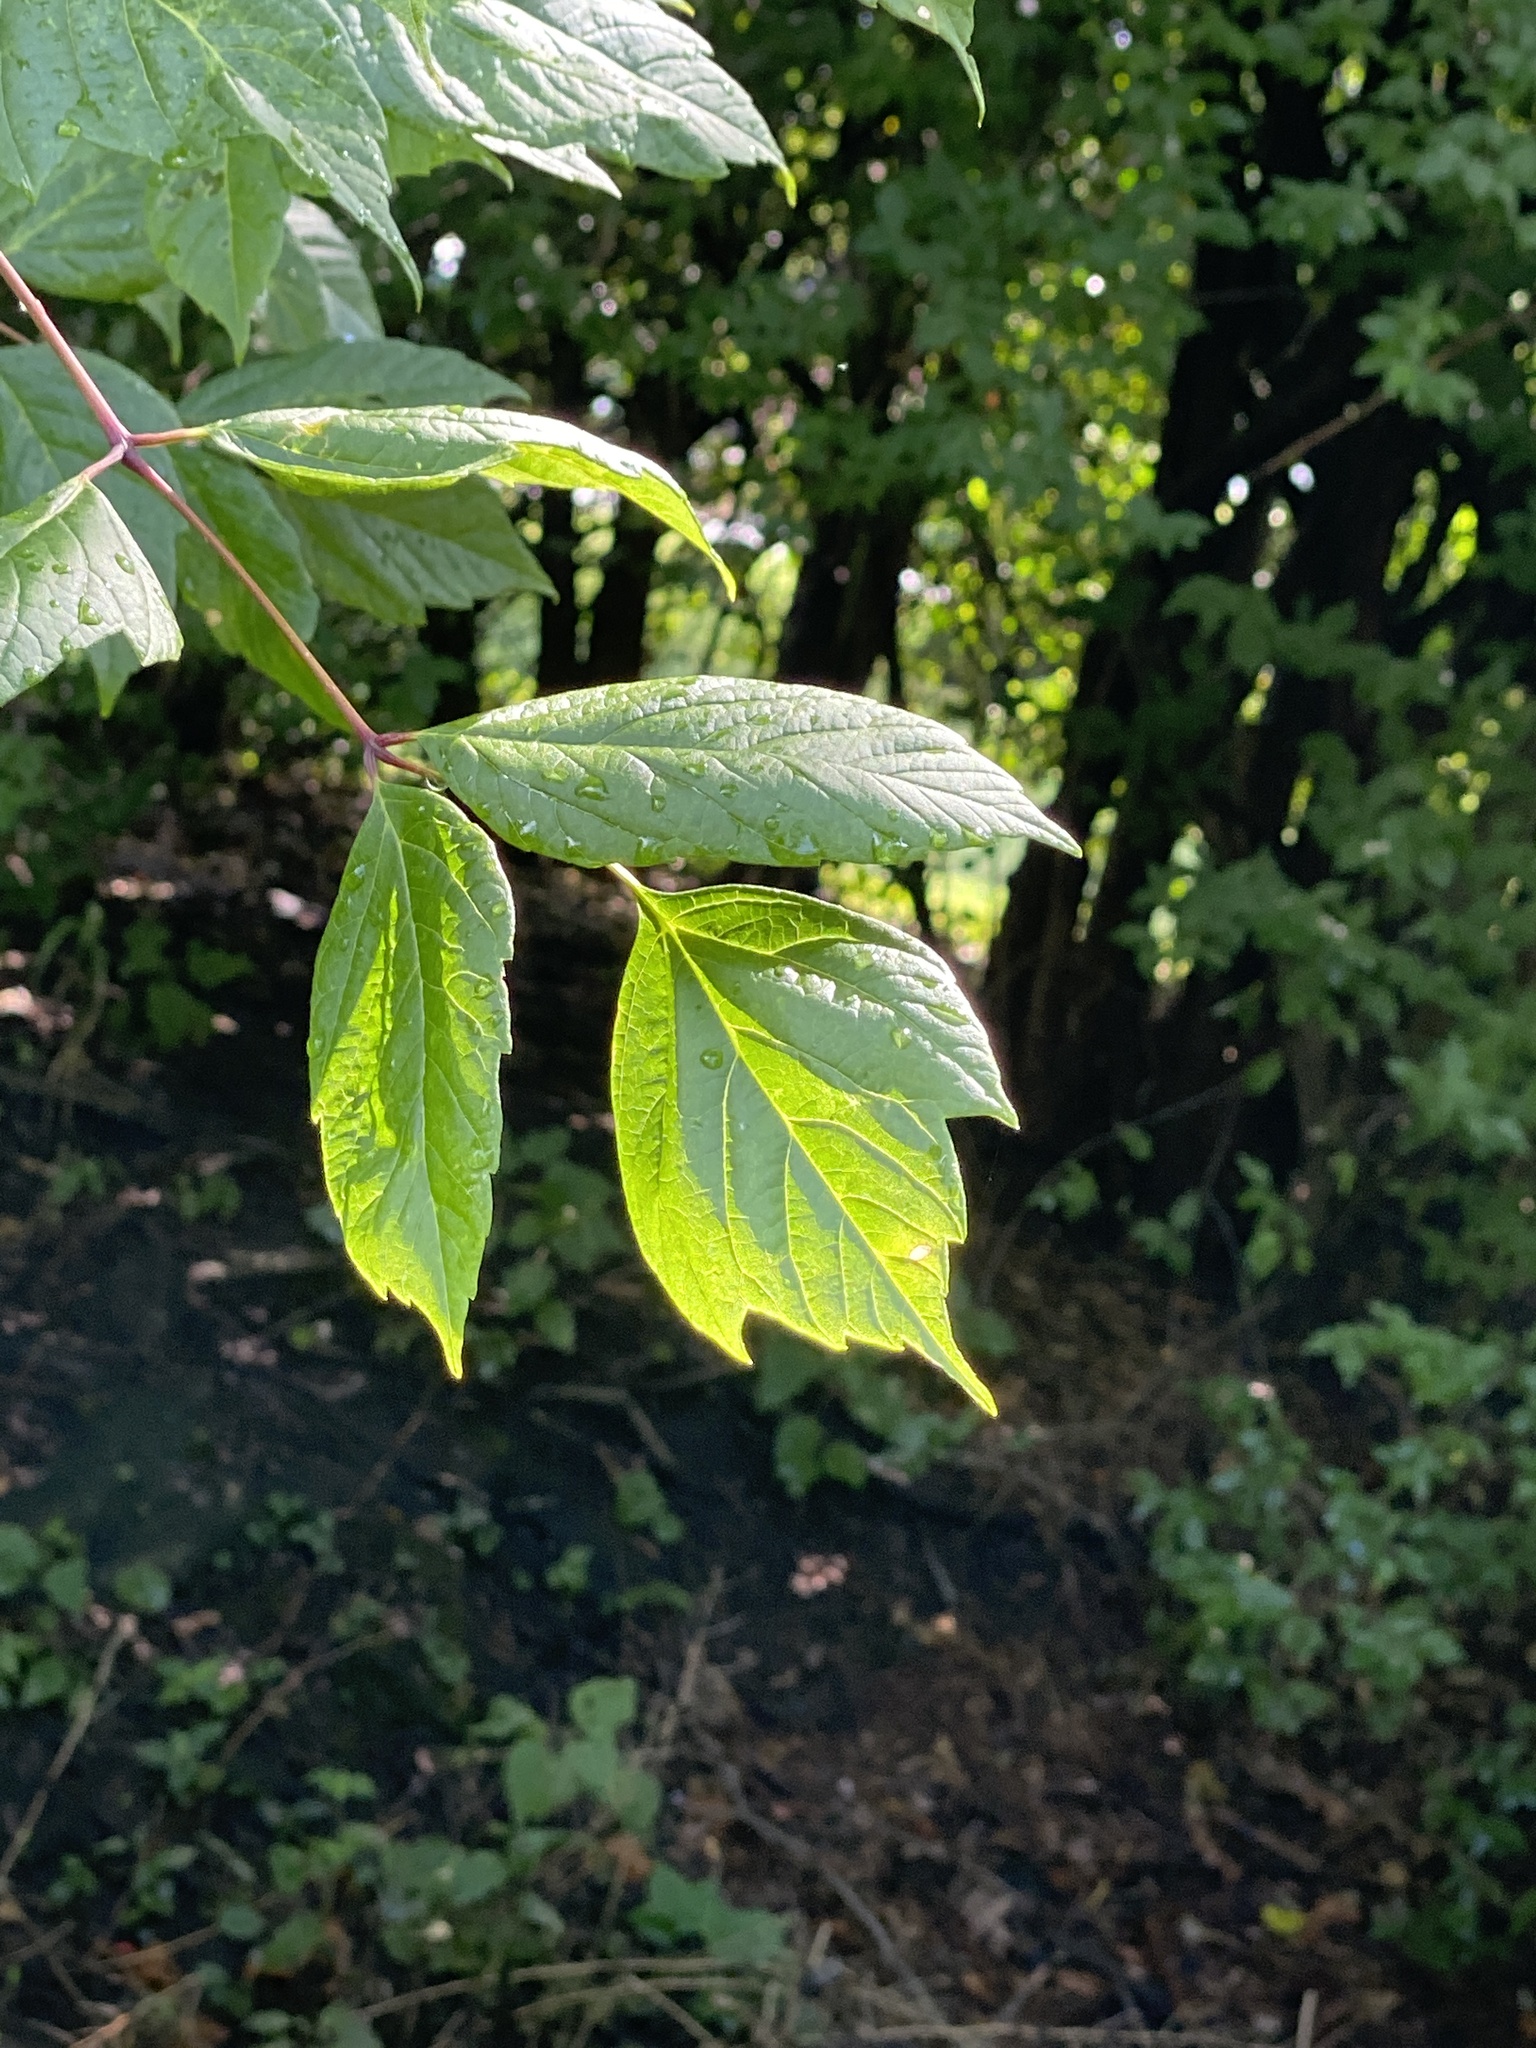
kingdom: Plantae
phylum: Tracheophyta
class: Magnoliopsida
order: Sapindales
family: Sapindaceae
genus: Acer
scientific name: Acer negundo
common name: Ashleaf maple
